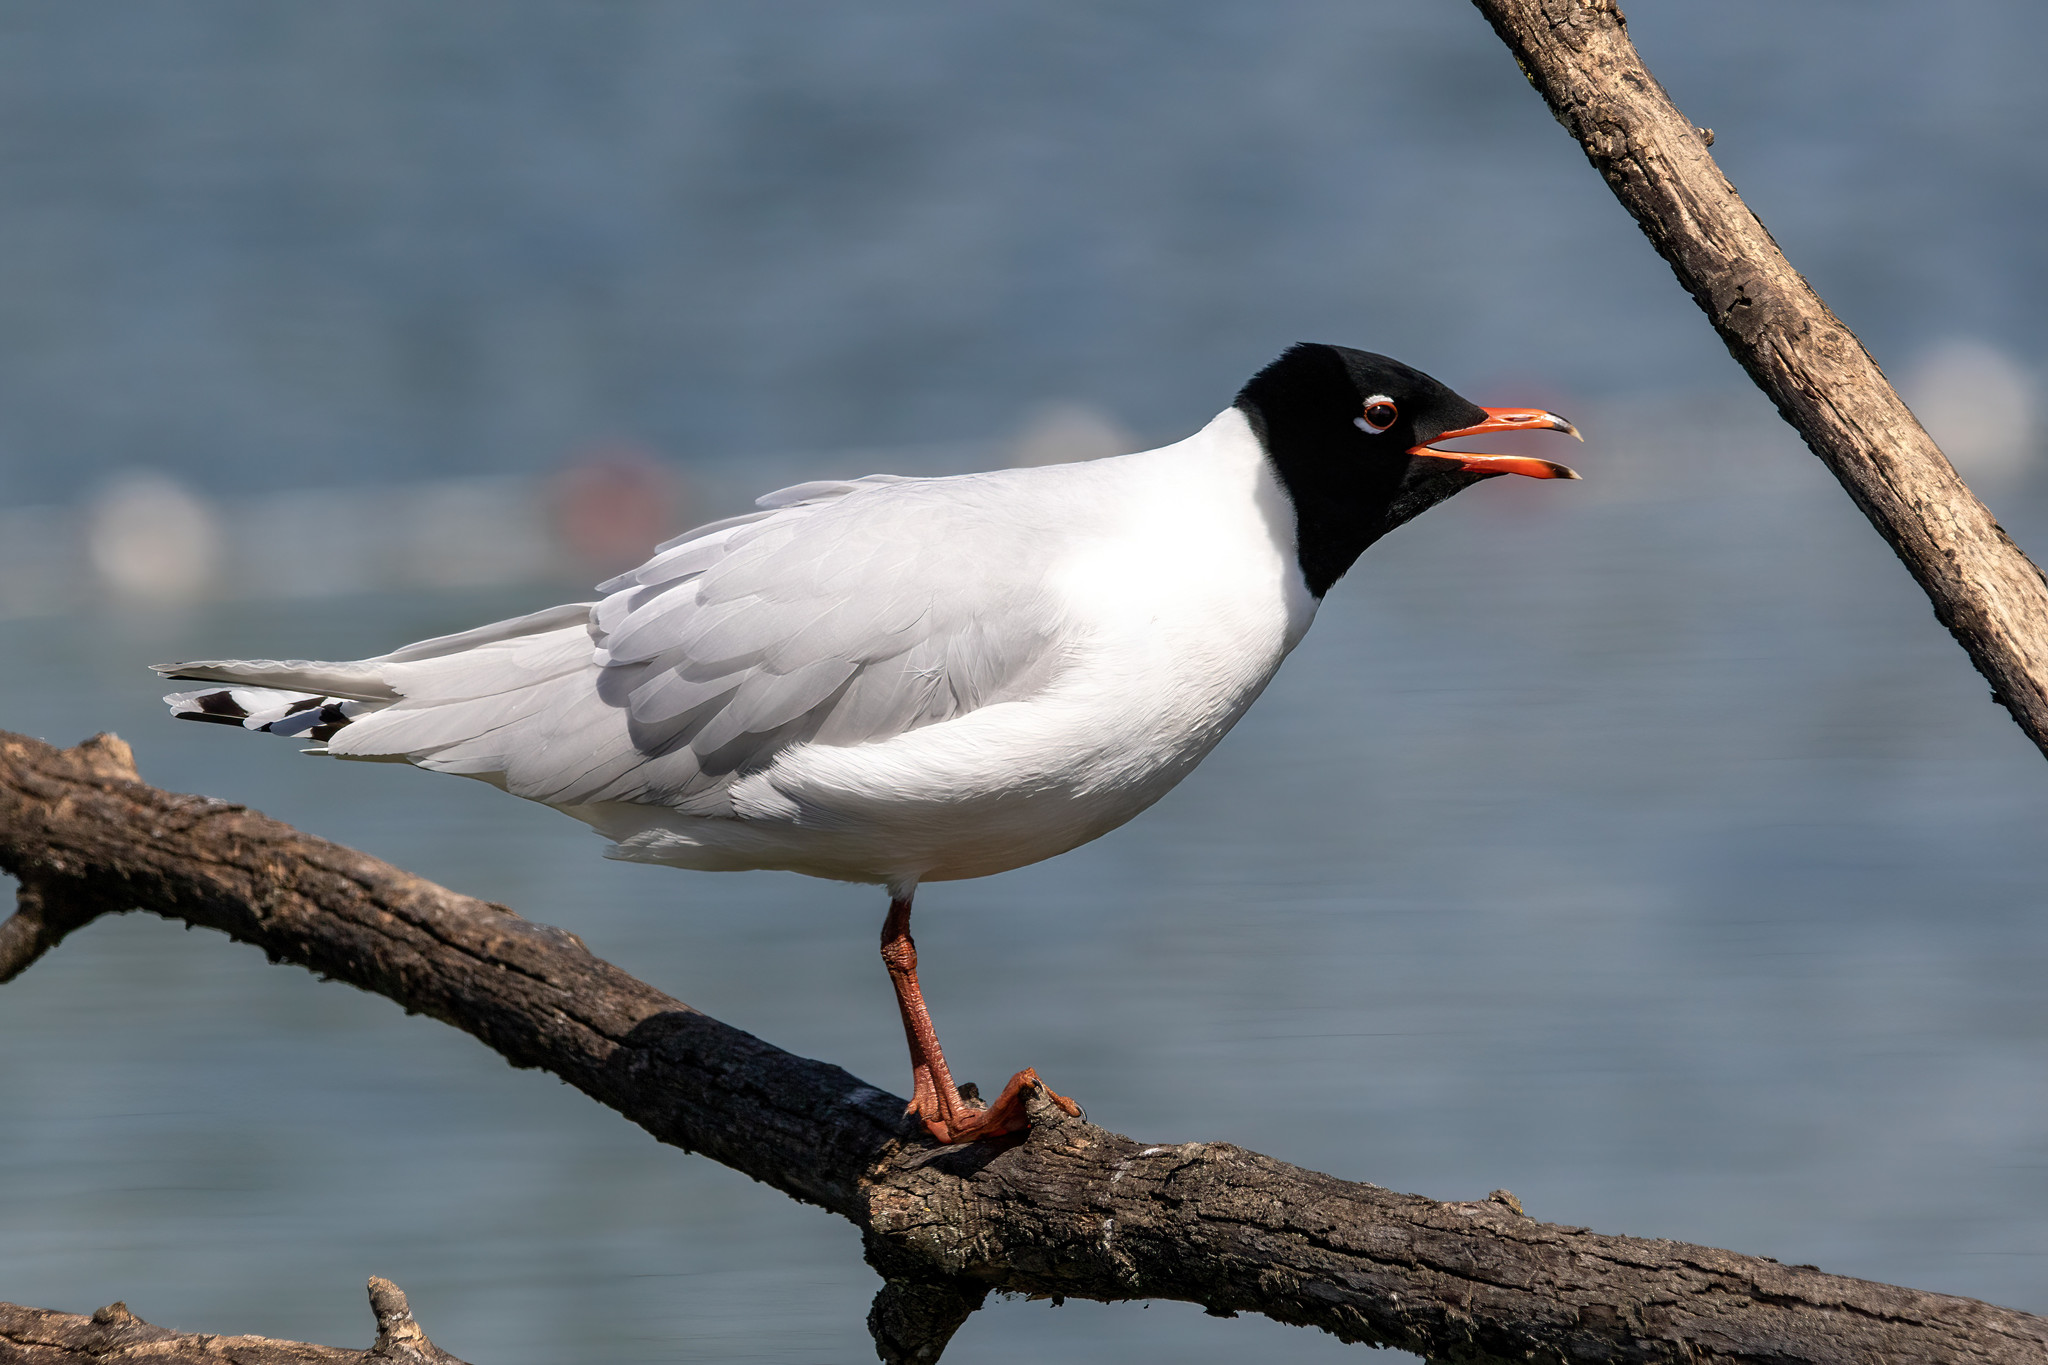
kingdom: Animalia
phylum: Chordata
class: Aves
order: Charadriiformes
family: Laridae
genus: Ichthyaetus
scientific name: Ichthyaetus melanocephalus
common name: Mediterranean gull
